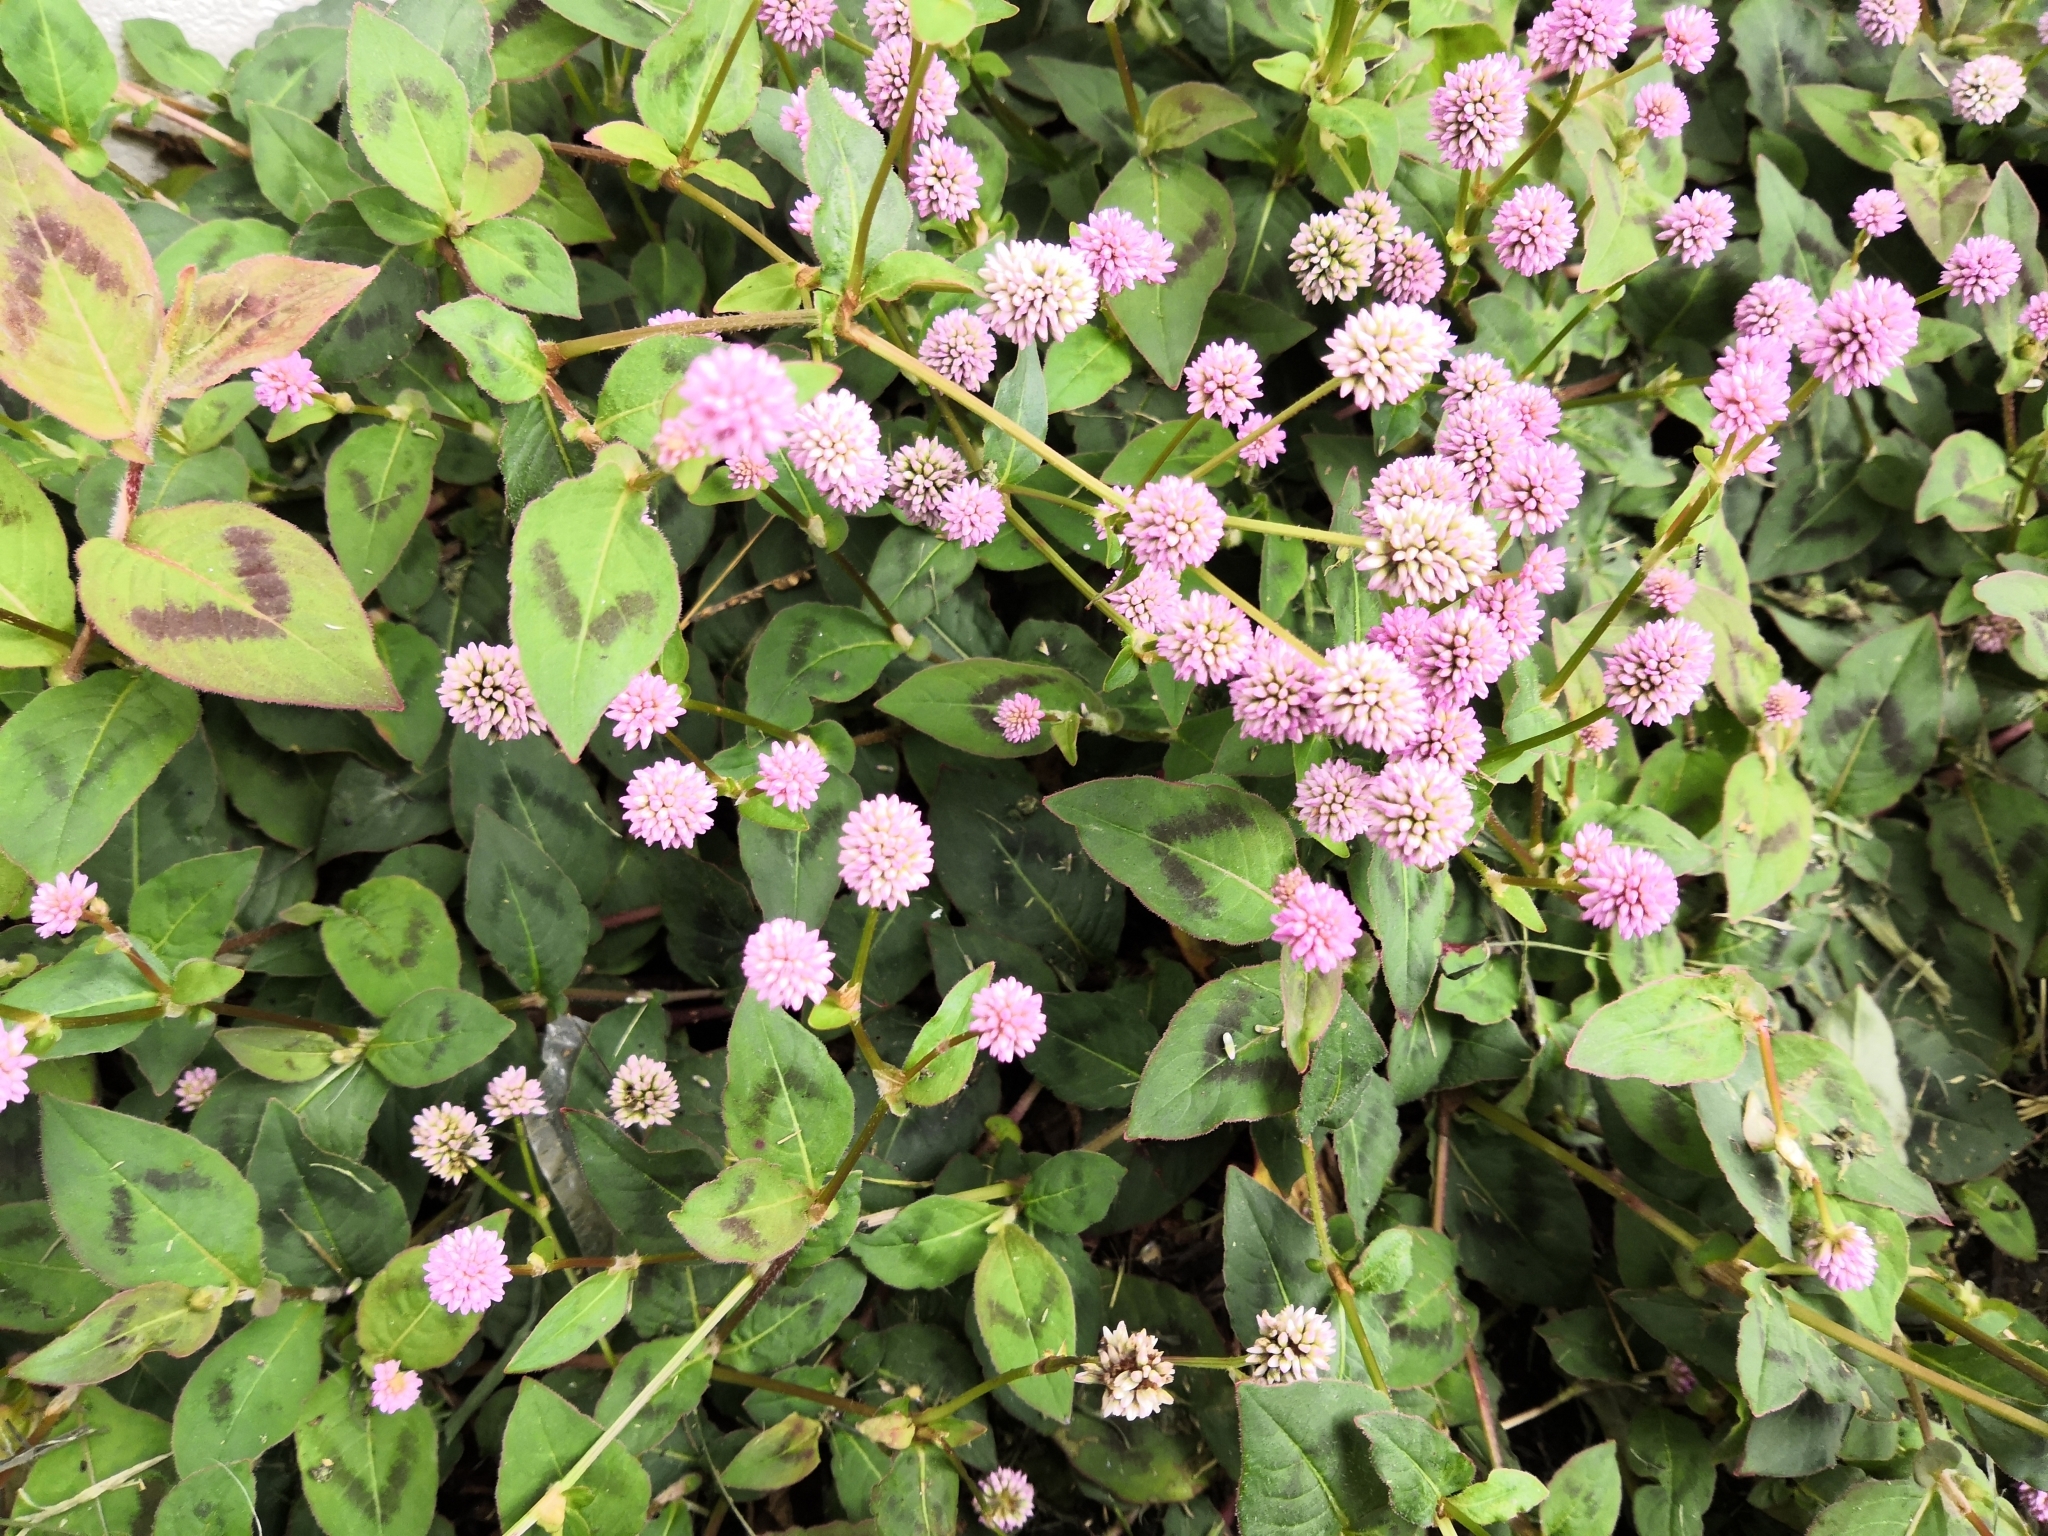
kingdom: Plantae
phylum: Tracheophyta
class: Magnoliopsida
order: Caryophyllales
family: Polygonaceae
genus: Persicaria
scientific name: Persicaria capitata
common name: Pinkhead smartweed
